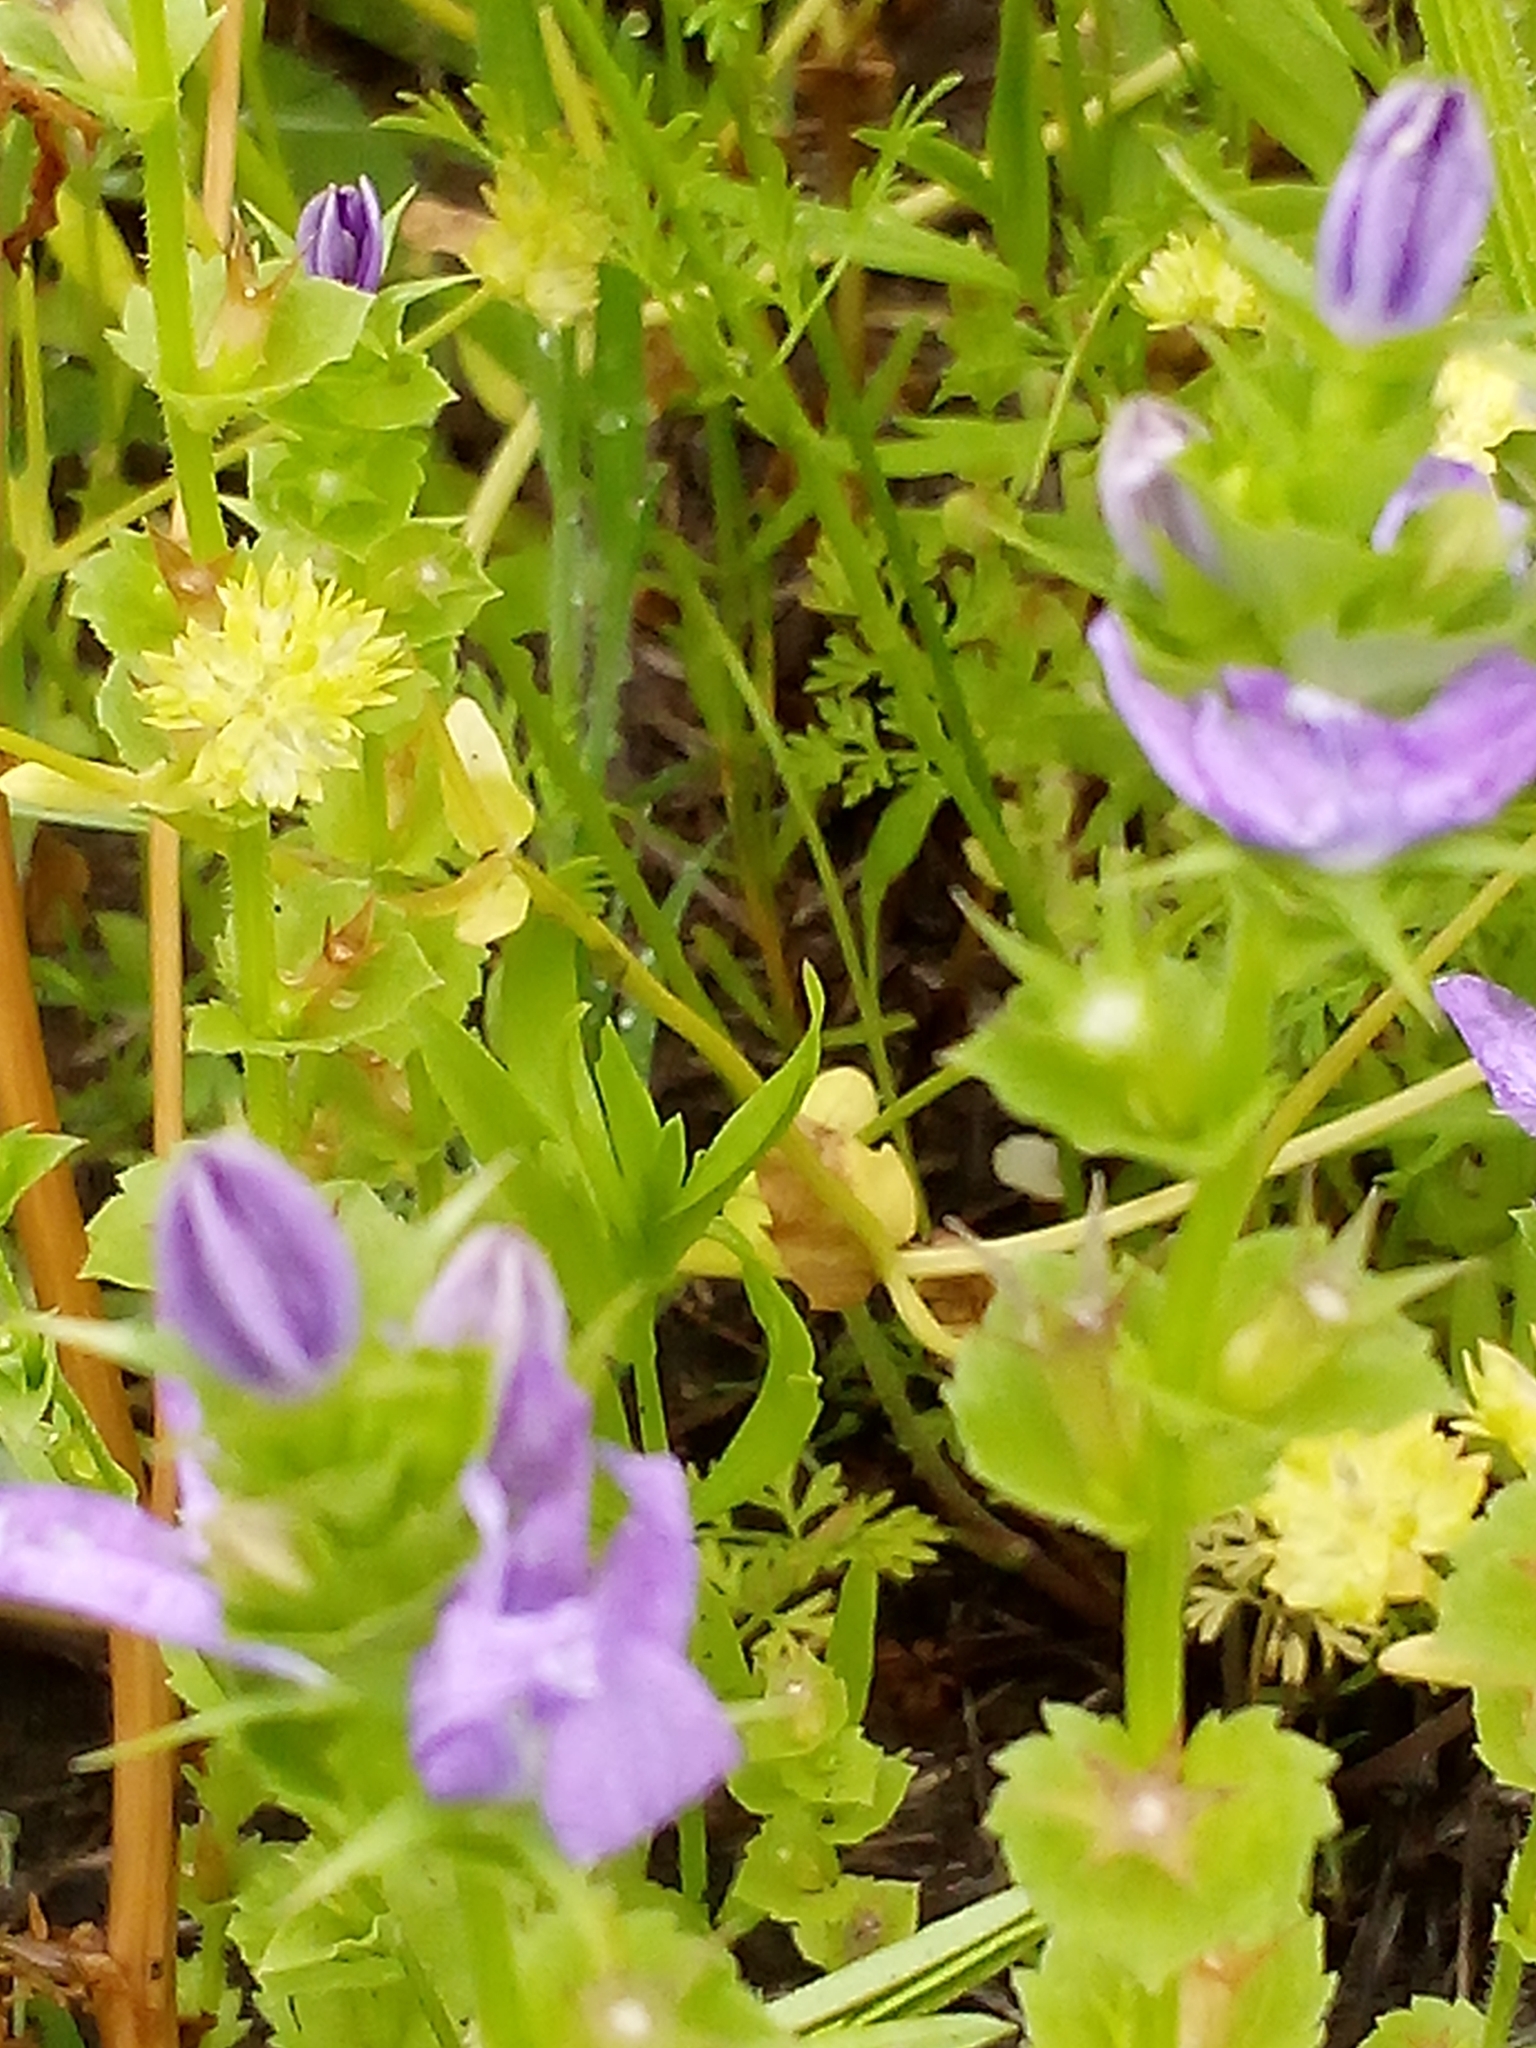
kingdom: Plantae
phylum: Tracheophyta
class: Magnoliopsida
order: Asterales
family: Campanulaceae
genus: Triodanis
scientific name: Triodanis perfoliata
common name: Clasping venus' looking-glass
